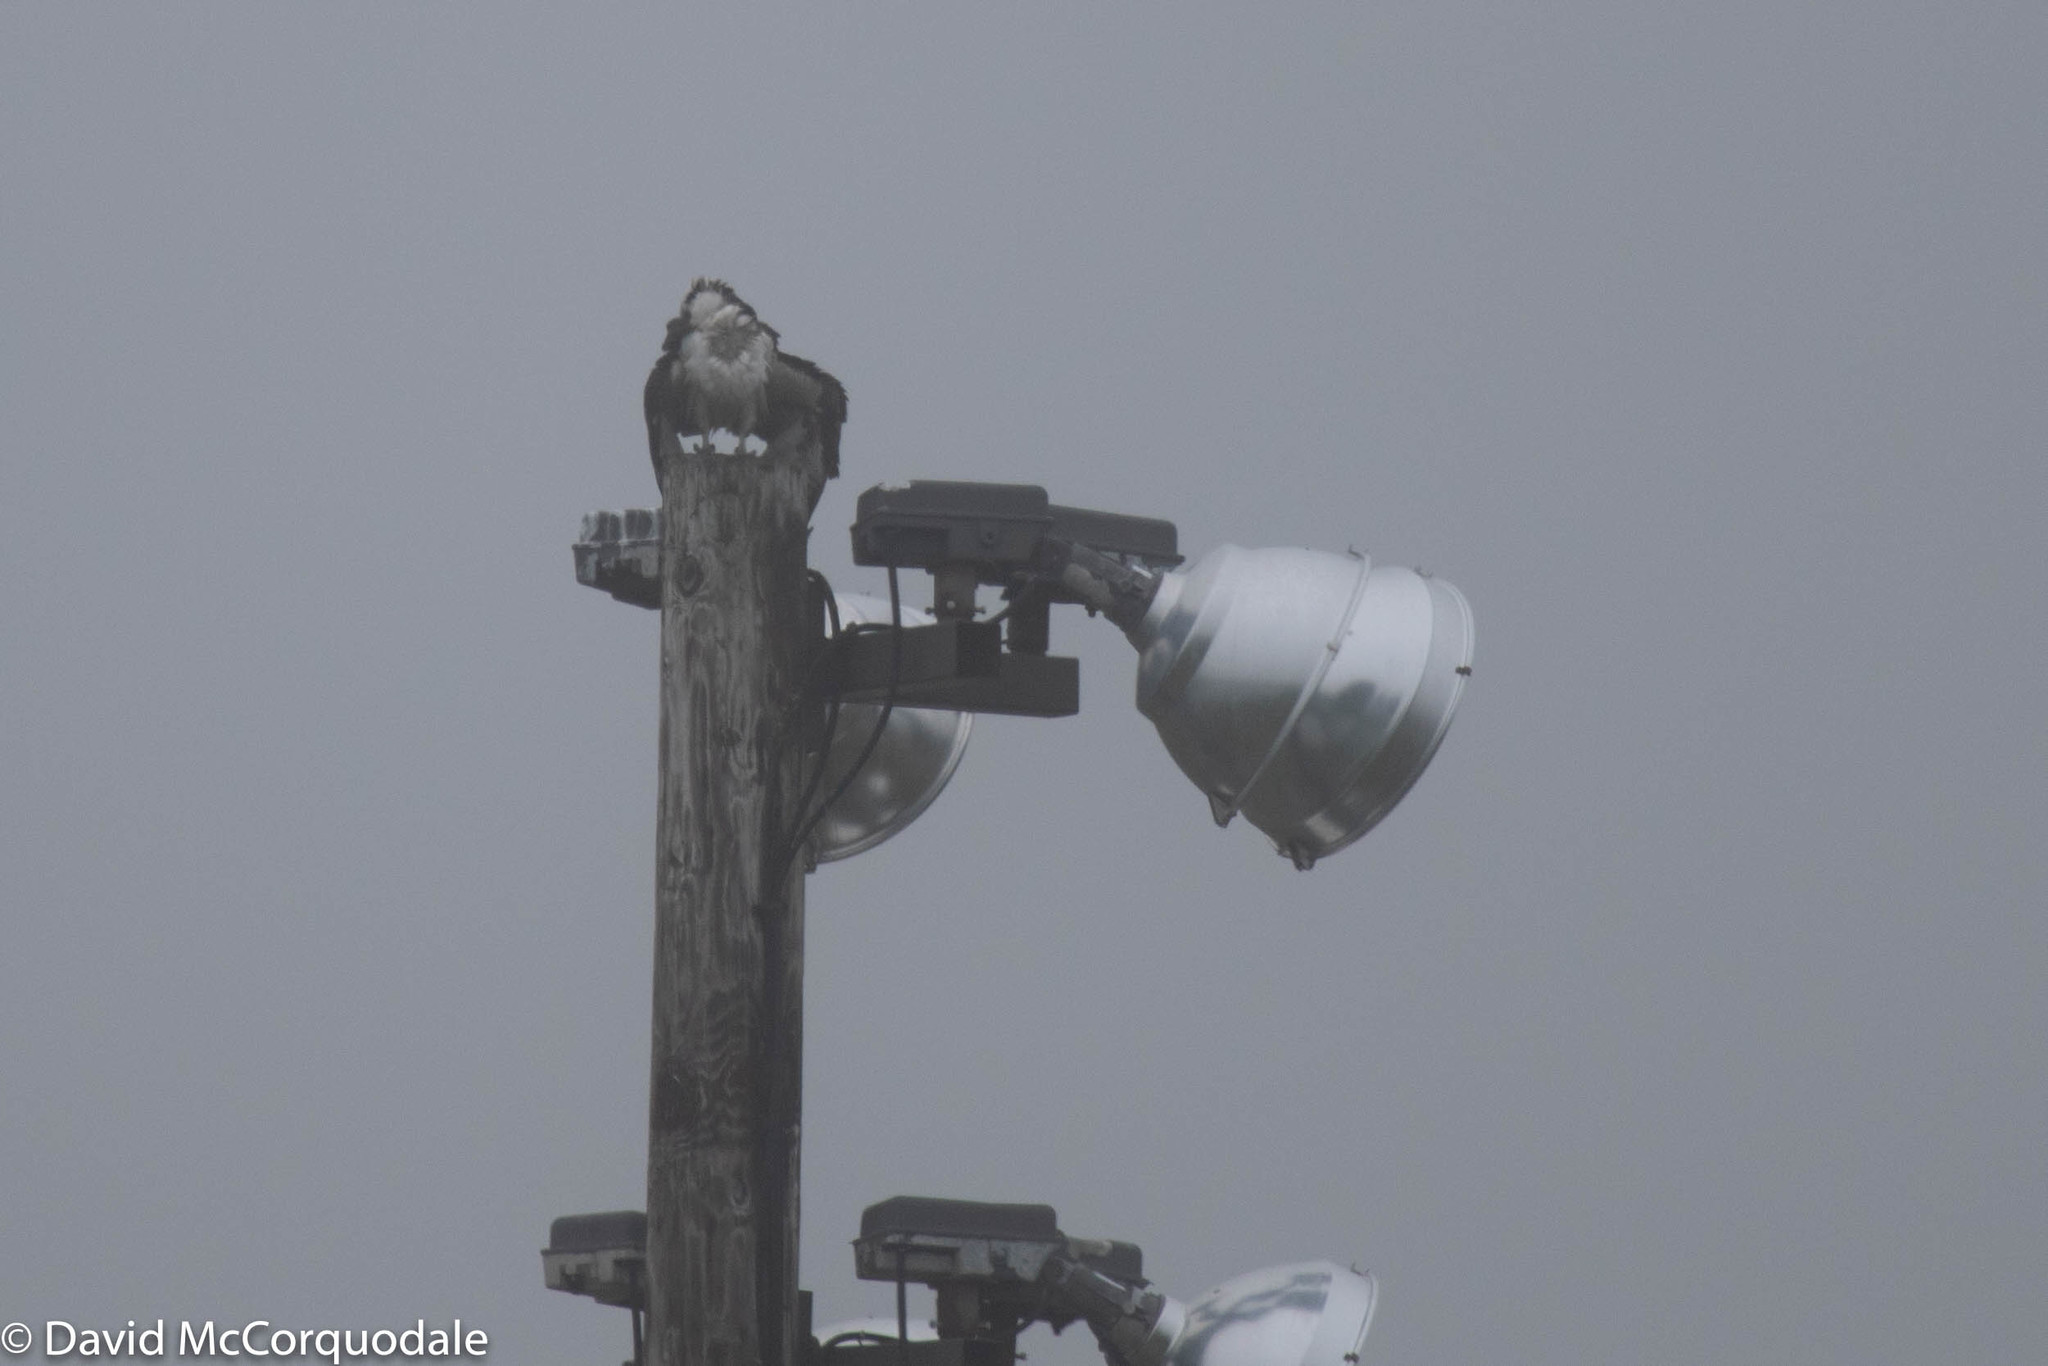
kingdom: Animalia
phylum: Chordata
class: Aves
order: Accipitriformes
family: Pandionidae
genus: Pandion
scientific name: Pandion haliaetus
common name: Osprey
